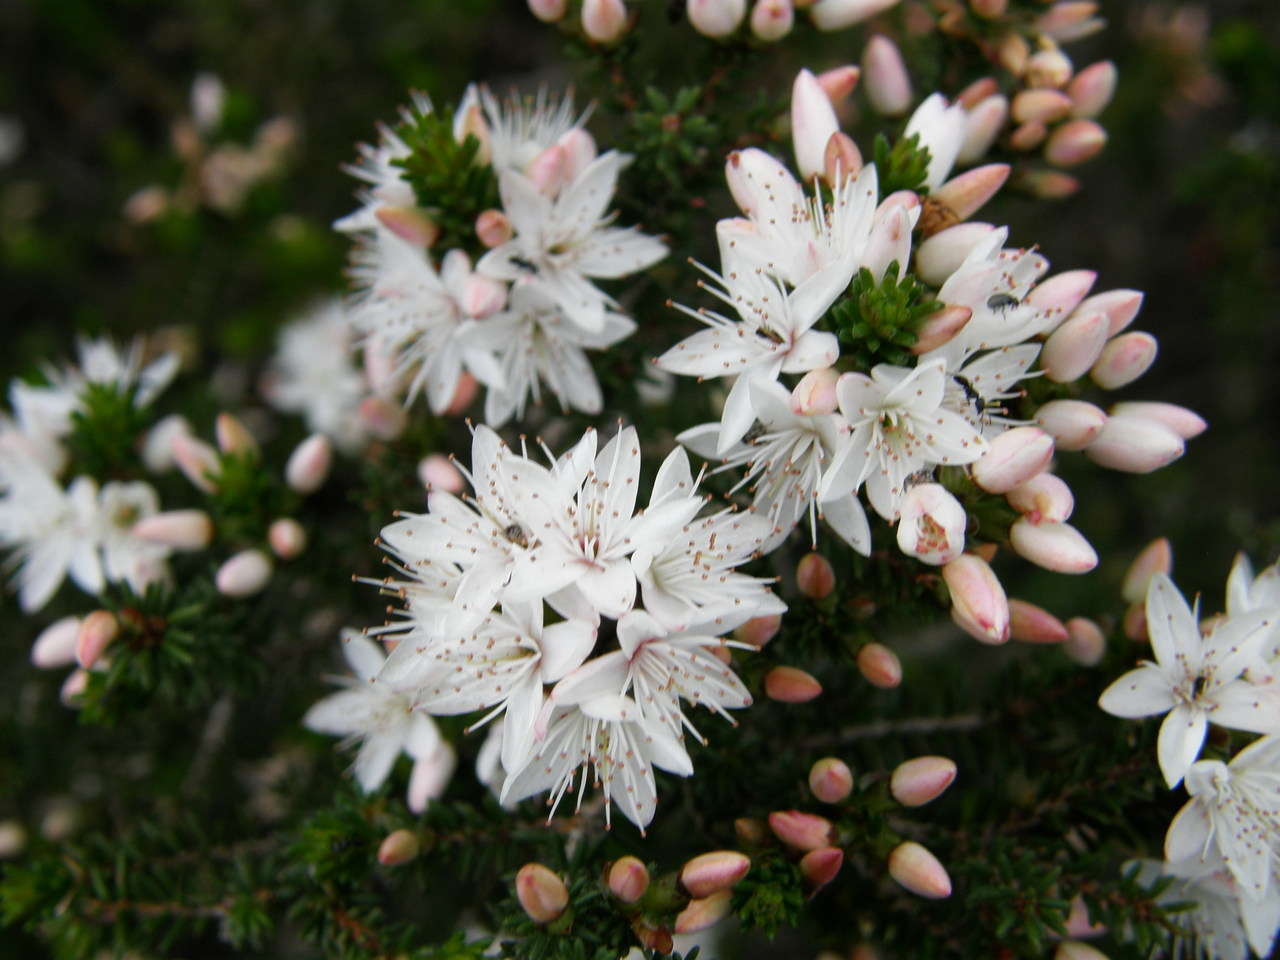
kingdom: Plantae
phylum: Tracheophyta
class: Magnoliopsida
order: Myrtales
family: Myrtaceae
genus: Calytrix
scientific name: Calytrix alpestris
